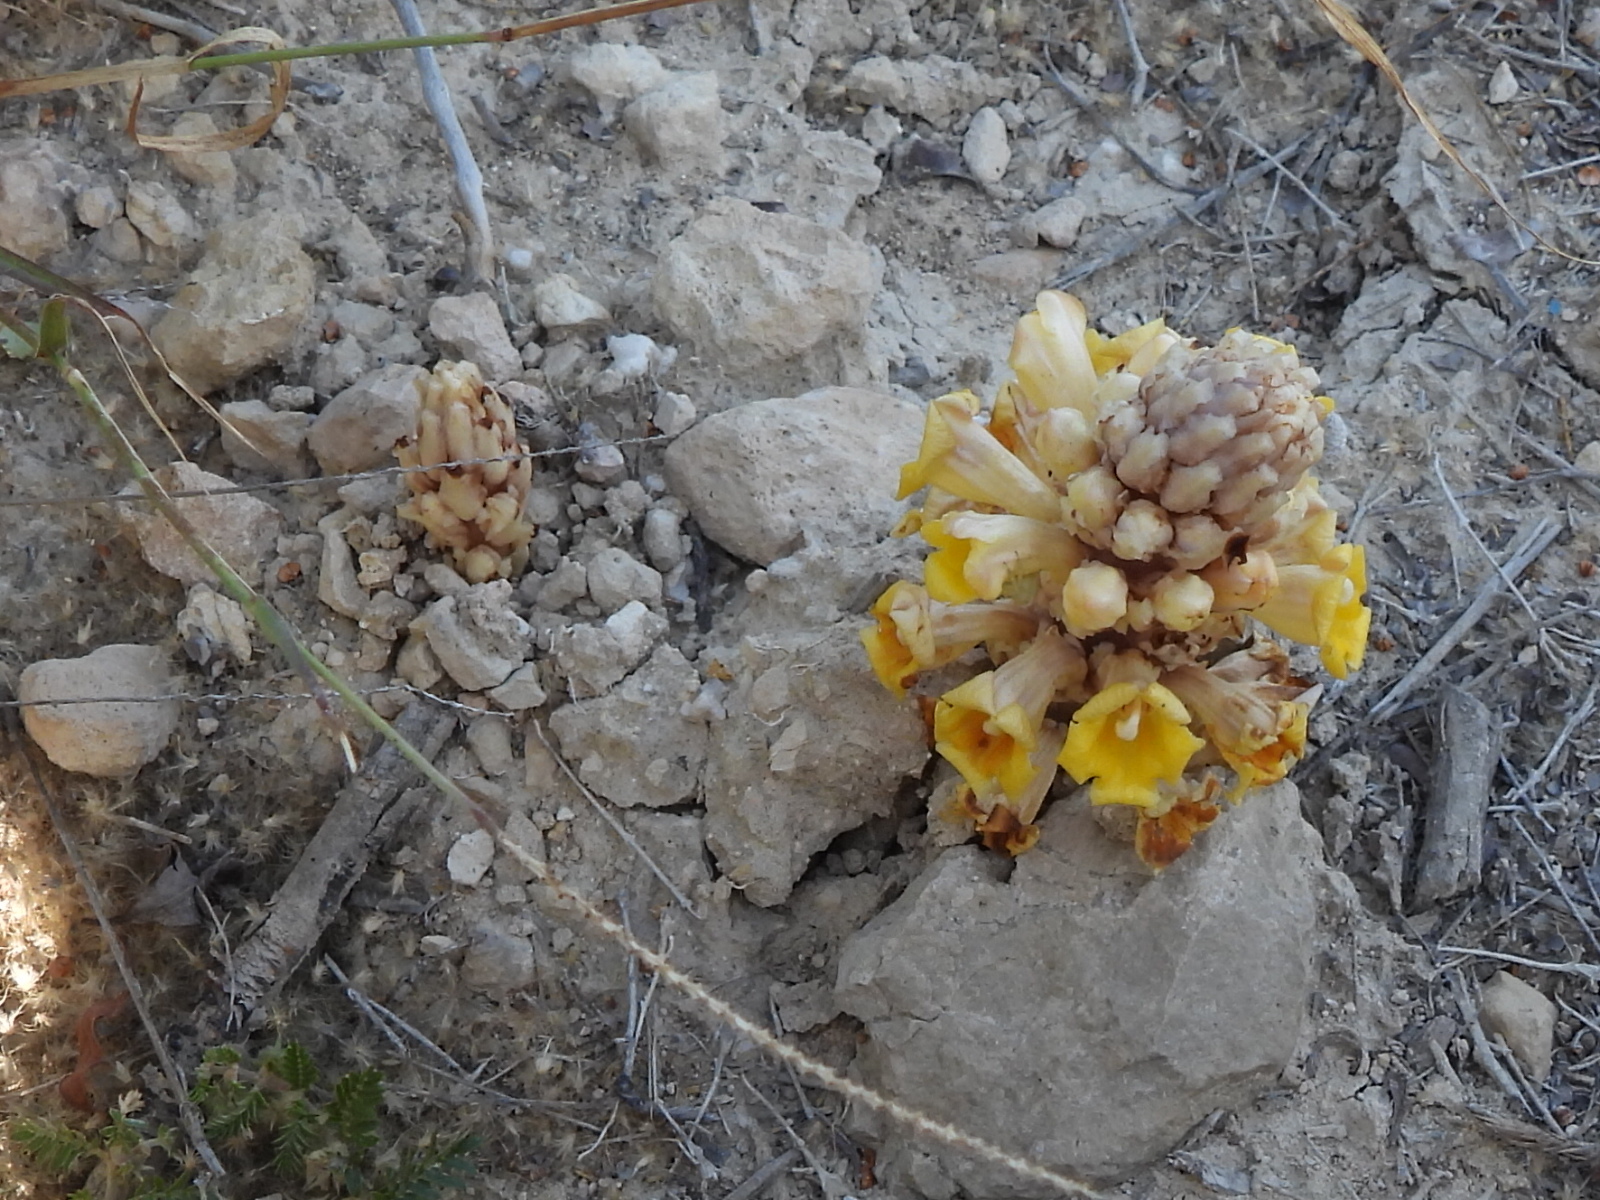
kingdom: Plantae
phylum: Tracheophyta
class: Magnoliopsida
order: Lamiales
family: Orobanchaceae
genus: Cistanche
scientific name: Cistanche tubulosa
